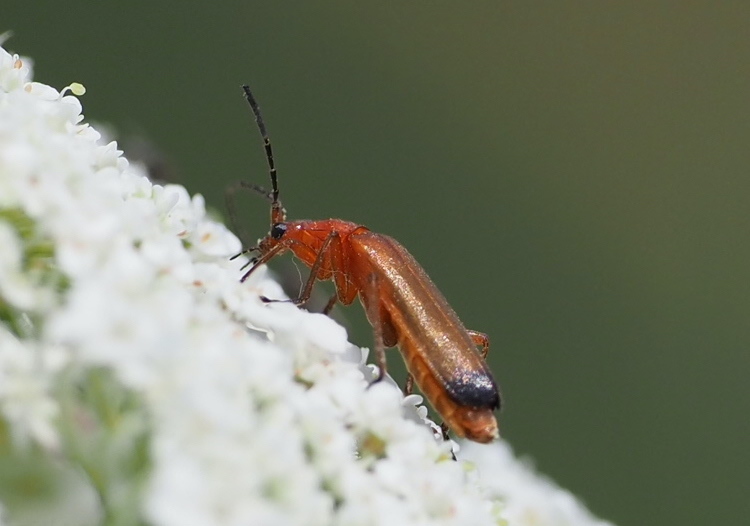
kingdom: Animalia
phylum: Arthropoda
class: Insecta
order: Coleoptera
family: Cantharidae
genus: Rhagonycha
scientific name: Rhagonycha fulva
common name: Common red soldier beetle
